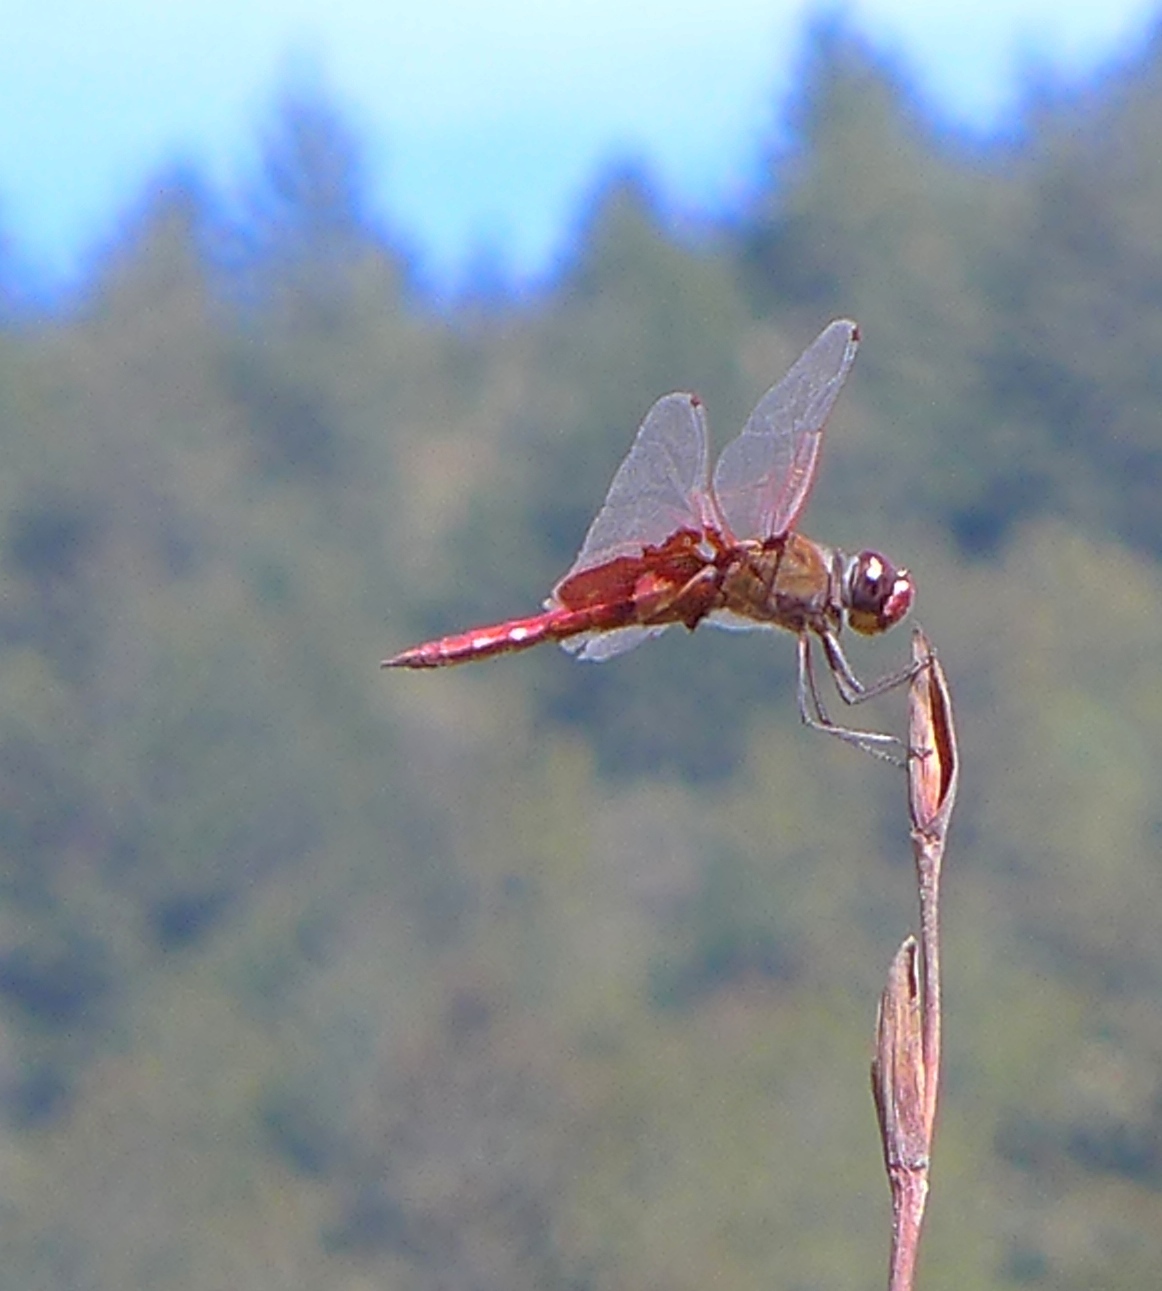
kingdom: Animalia
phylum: Arthropoda
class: Insecta
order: Odonata
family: Libellulidae
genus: Tramea
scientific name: Tramea onusta
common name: Red saddlebags
